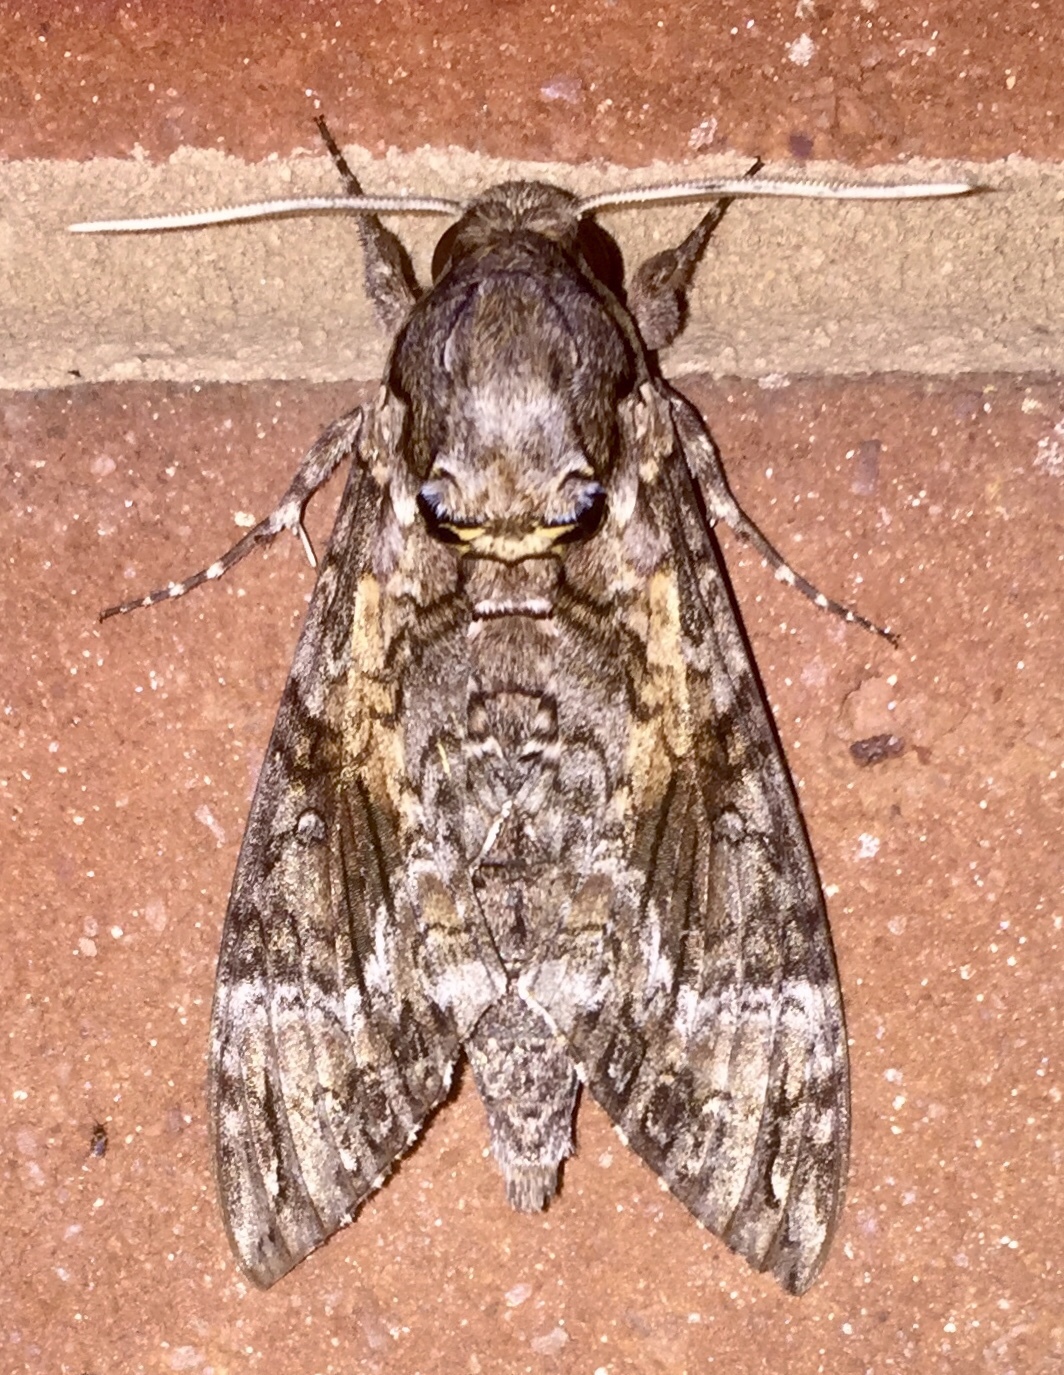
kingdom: Animalia
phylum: Arthropoda
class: Insecta
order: Lepidoptera
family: Sphingidae
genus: Agrius
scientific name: Agrius cingulata
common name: Pink-spotted hawkmoth
